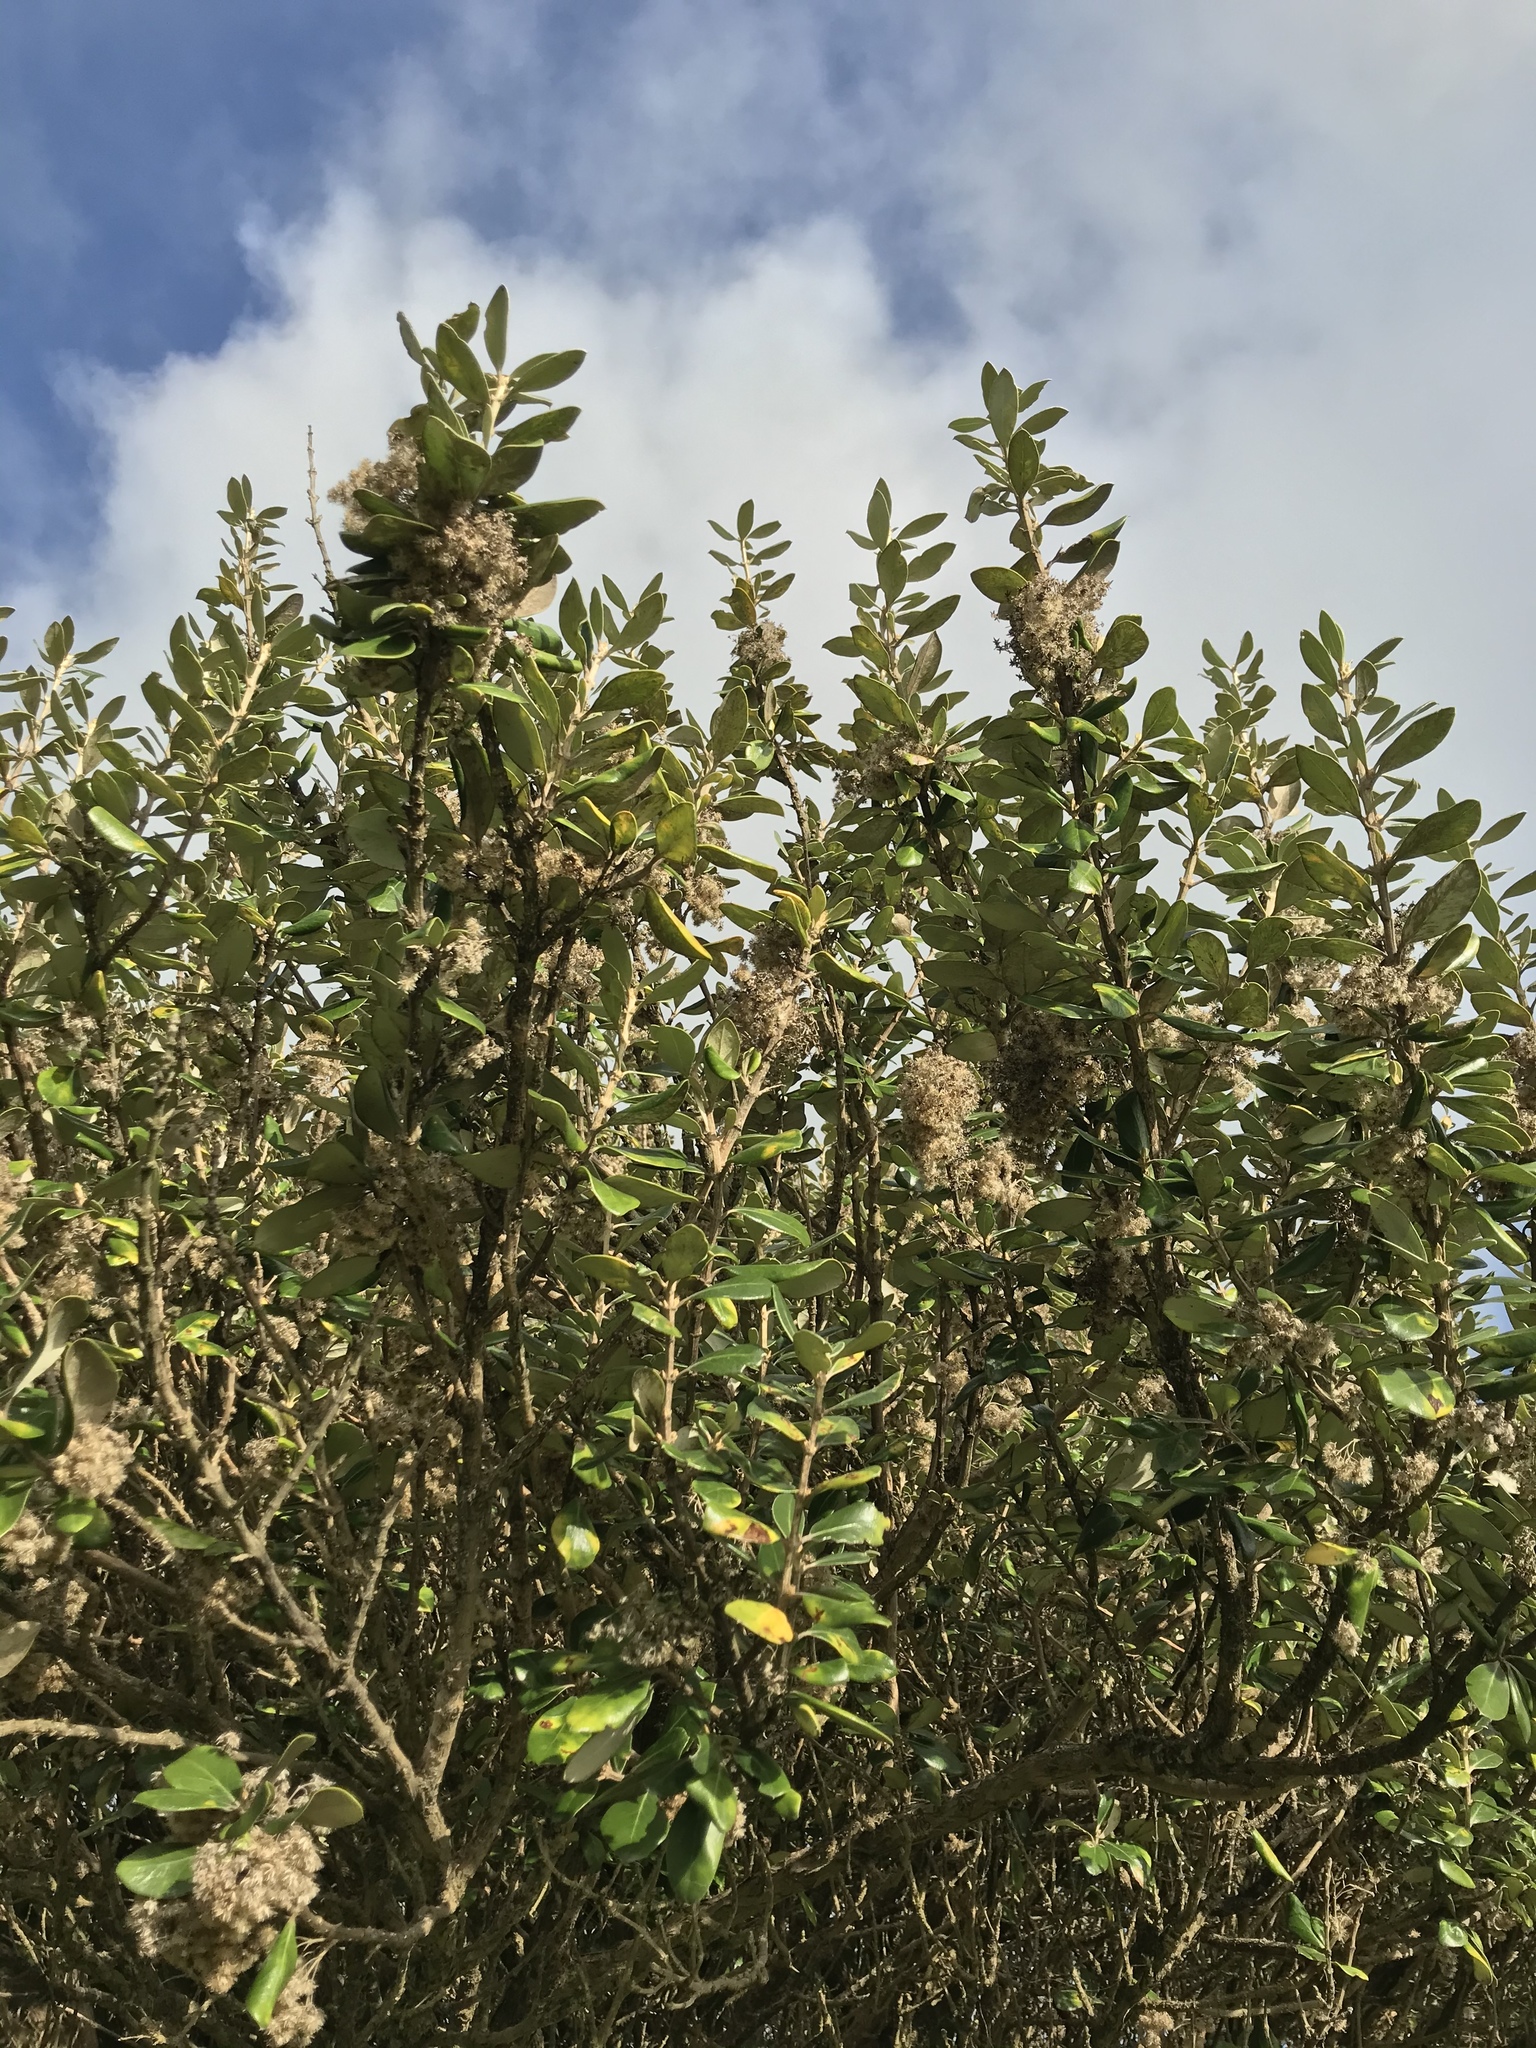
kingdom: Plantae
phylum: Tracheophyta
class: Magnoliopsida
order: Asterales
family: Asteraceae
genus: Olearia
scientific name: Olearia traversiorum
